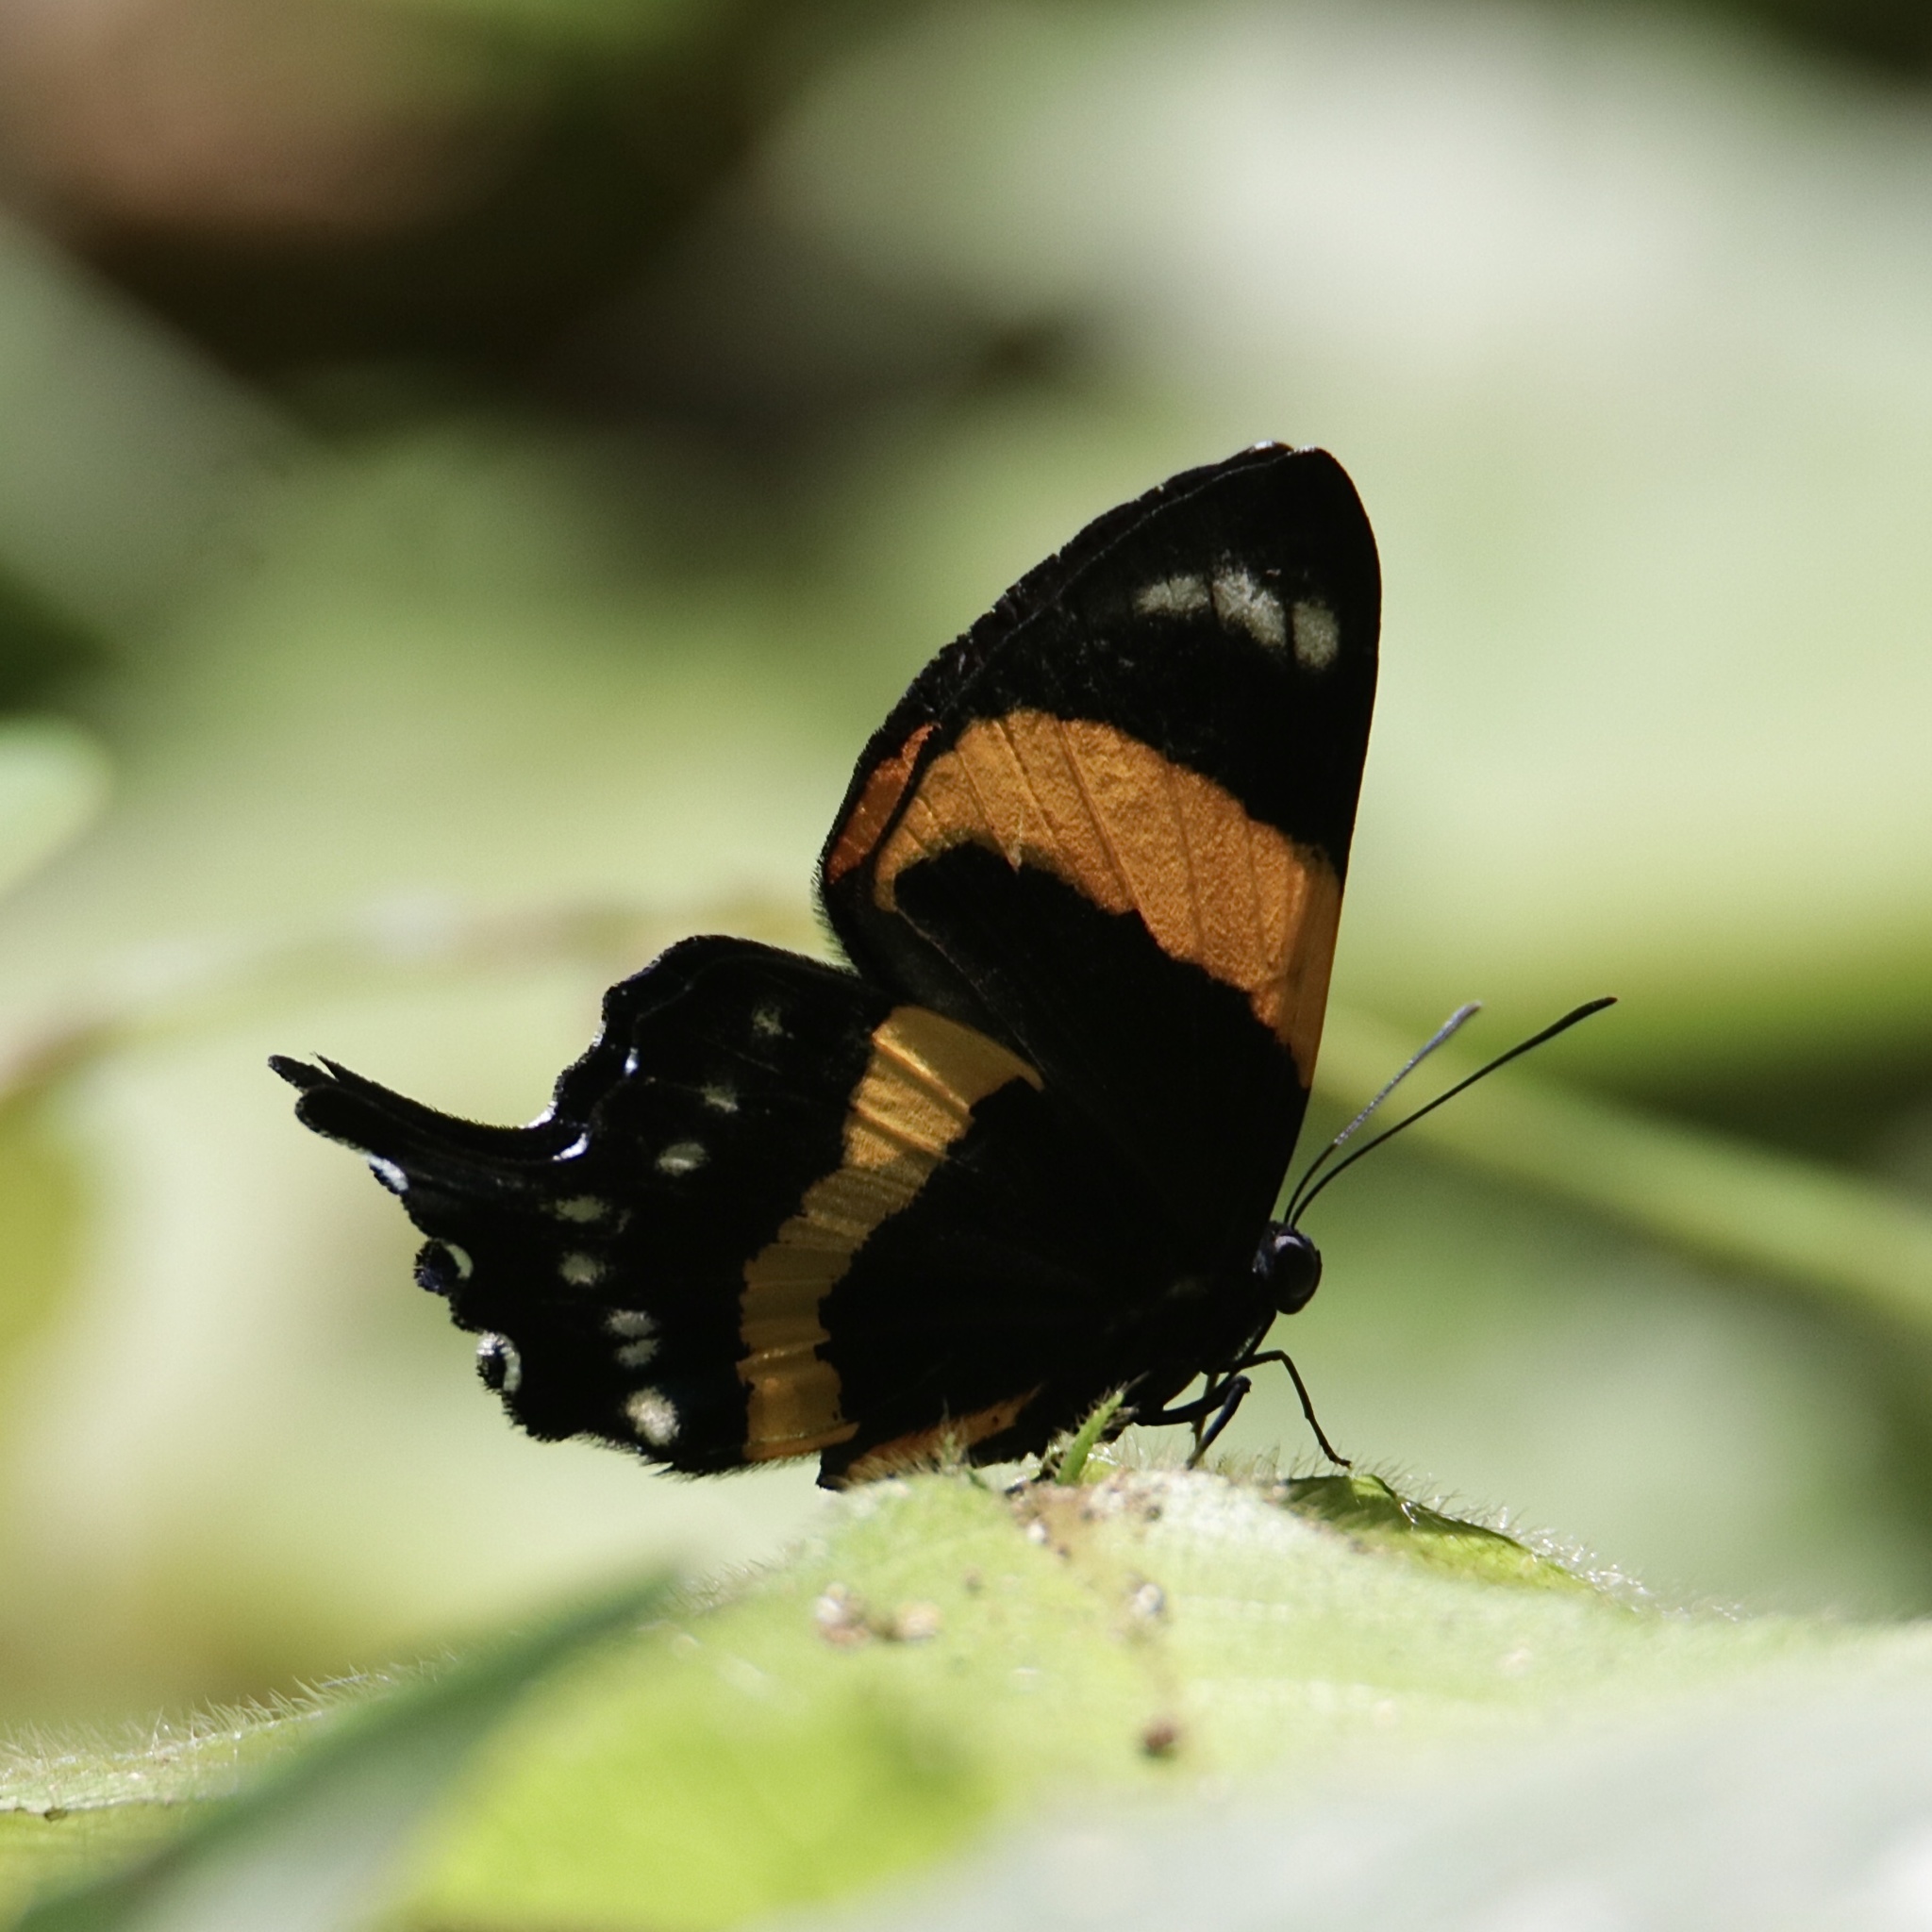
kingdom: Animalia
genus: Ancyluris
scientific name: Ancyluris inca
